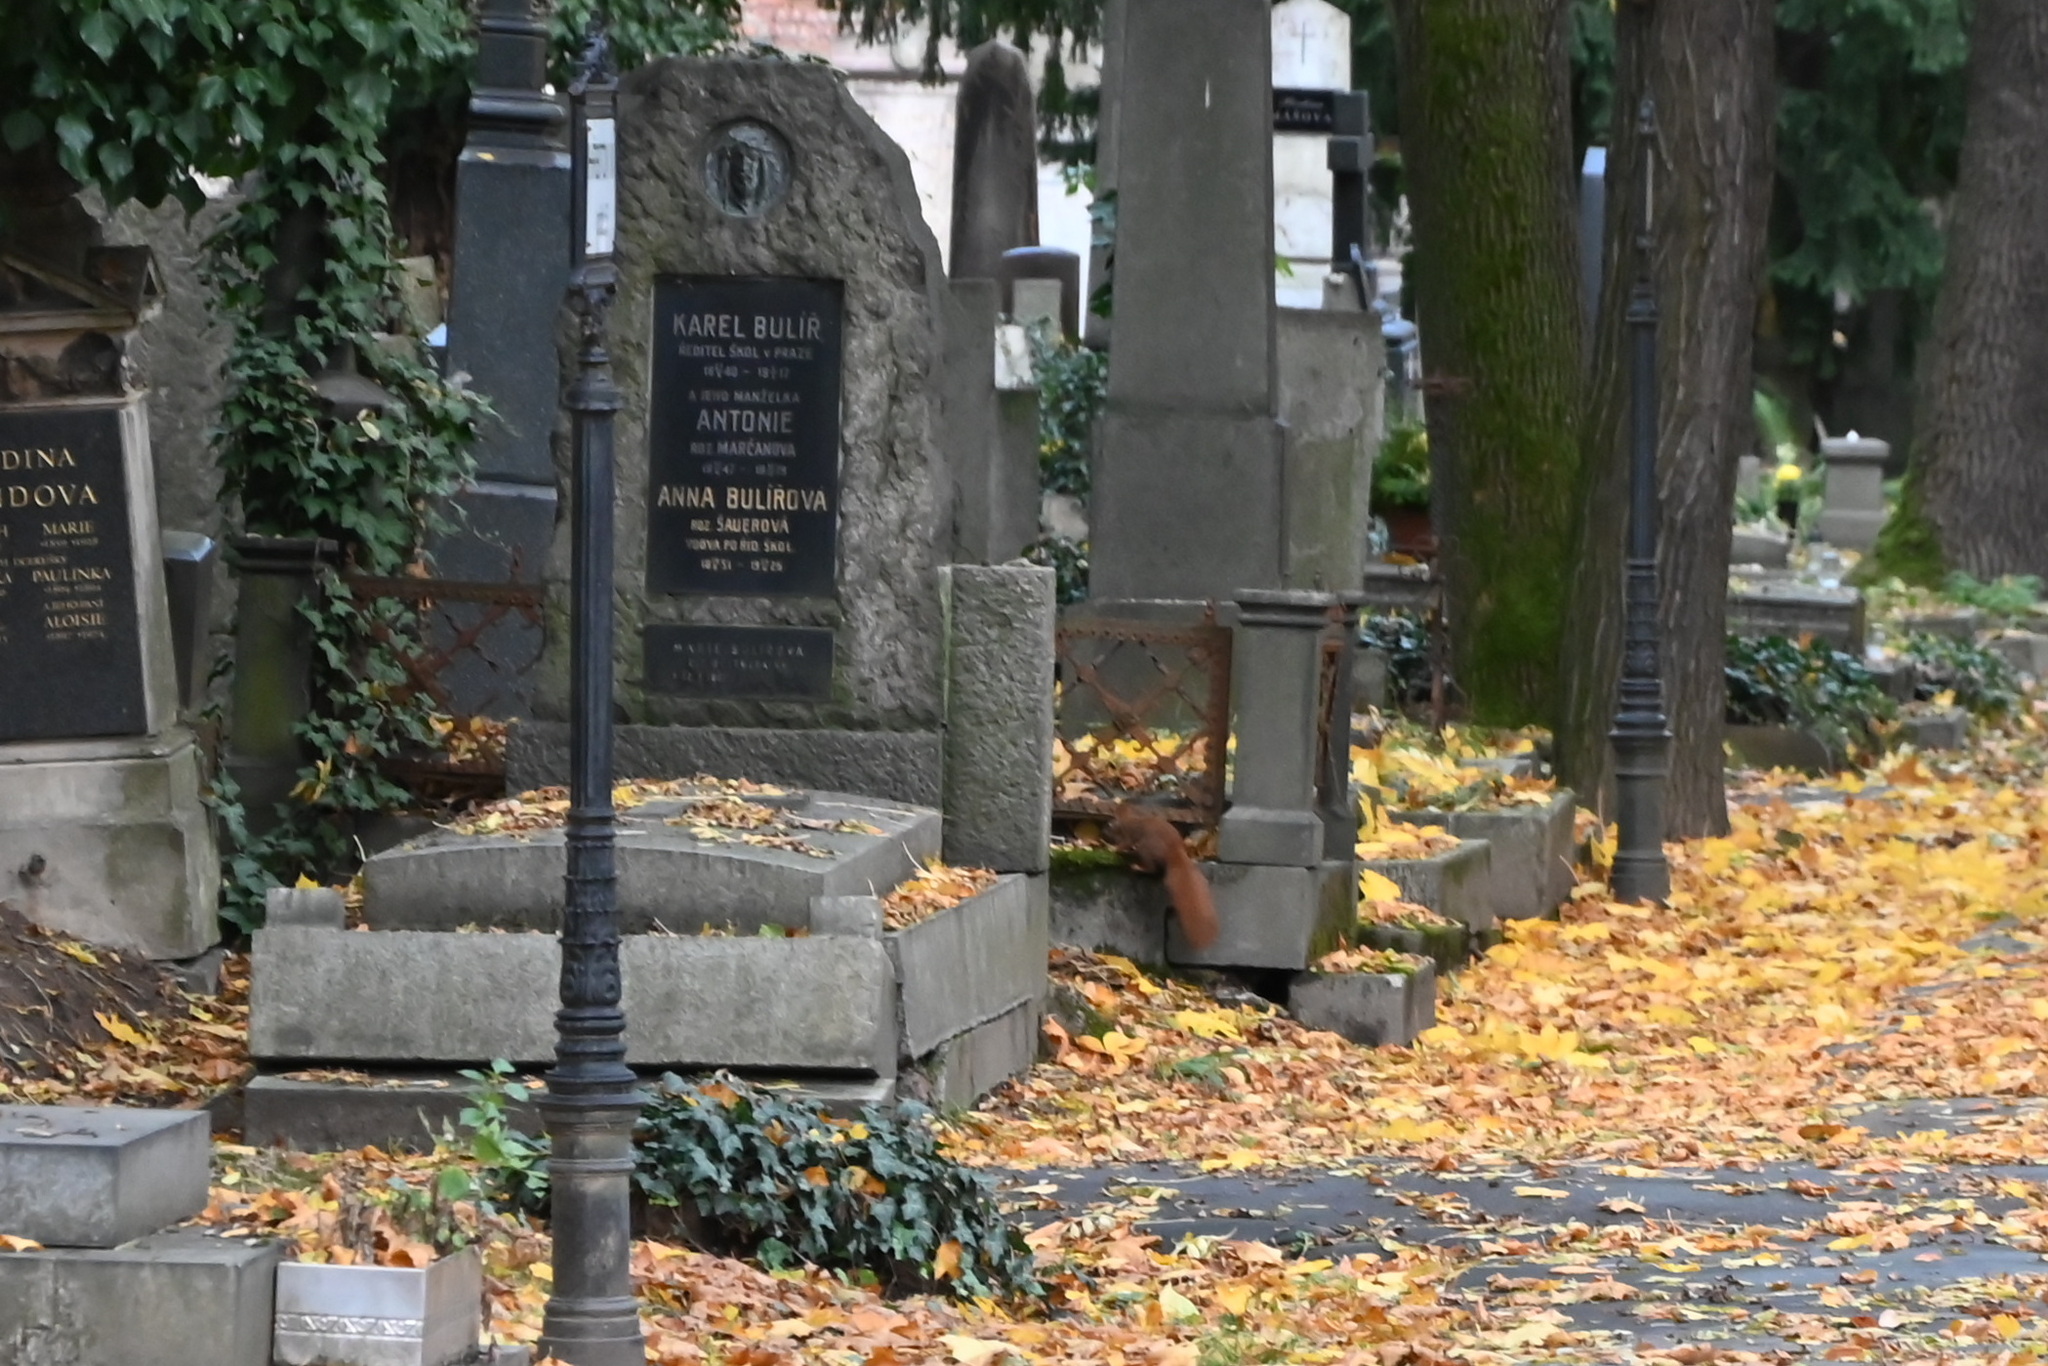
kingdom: Animalia
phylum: Chordata
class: Mammalia
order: Rodentia
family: Sciuridae
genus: Sciurus
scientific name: Sciurus vulgaris
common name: Eurasian red squirrel
